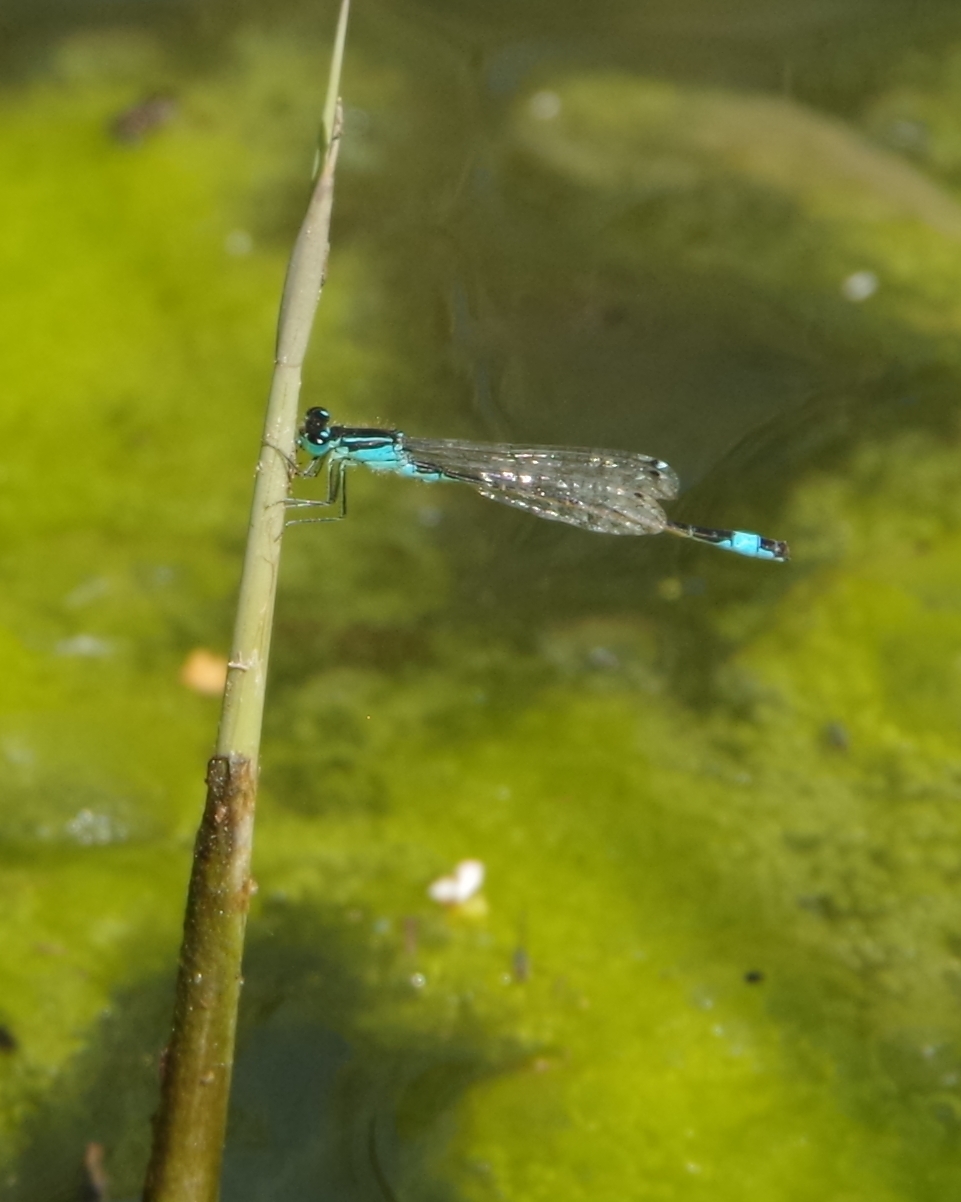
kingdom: Animalia
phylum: Arthropoda
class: Insecta
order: Odonata
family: Coenagrionidae
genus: Ischnura
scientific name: Ischnura elegans
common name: Blue-tailed damselfly
